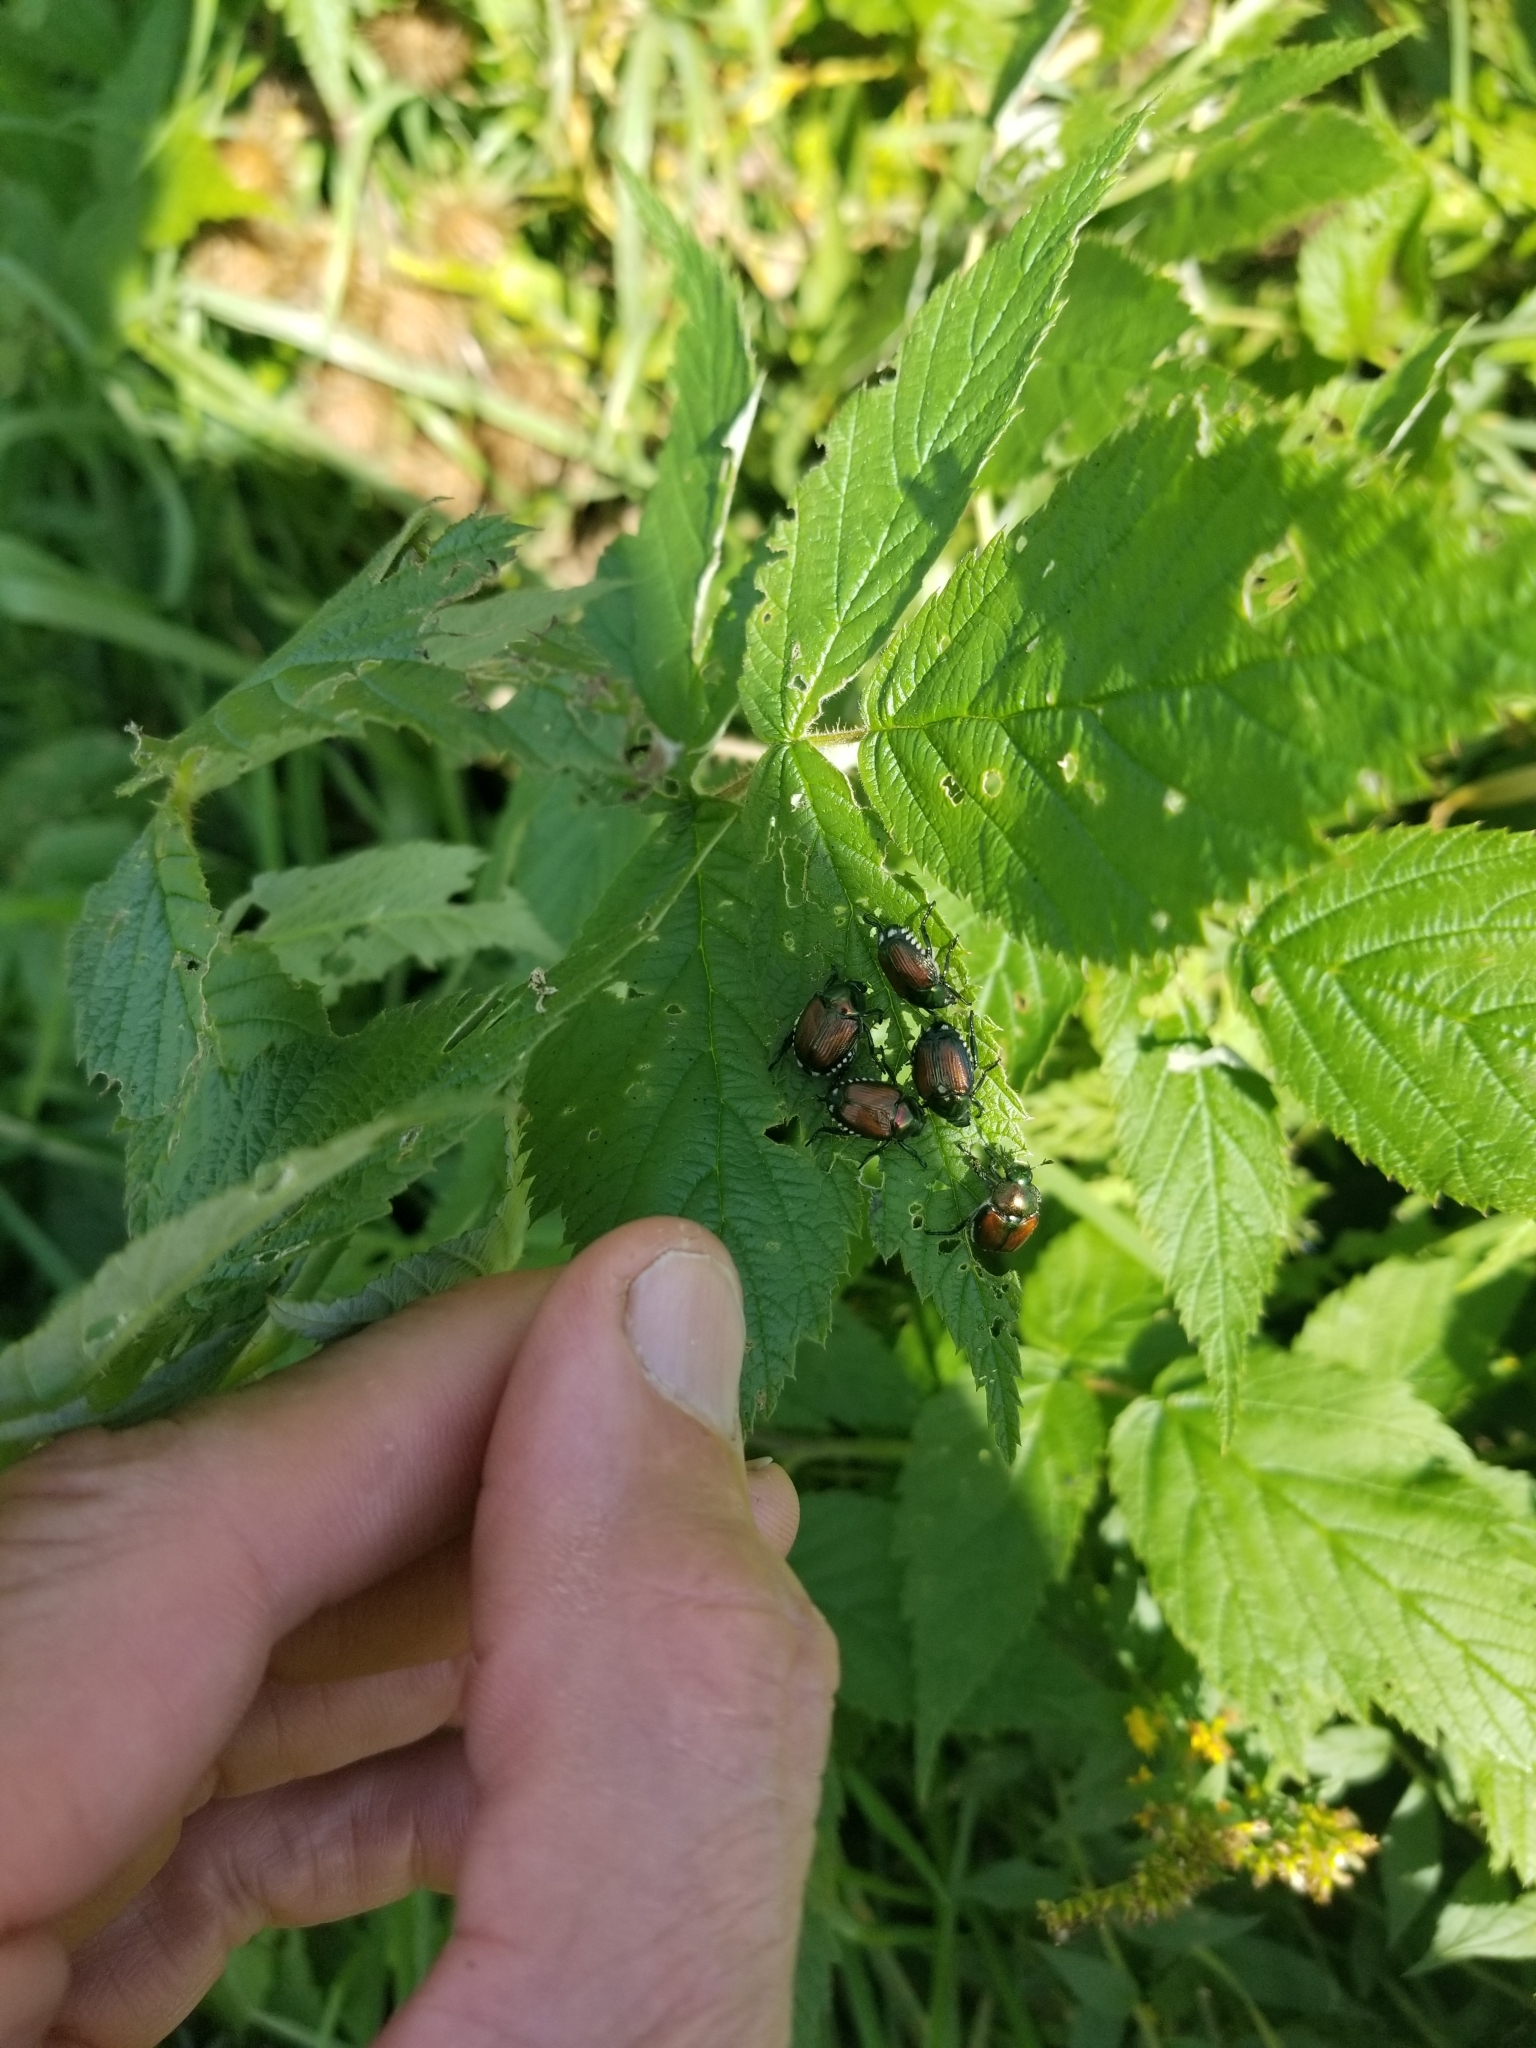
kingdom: Animalia
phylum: Arthropoda
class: Insecta
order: Coleoptera
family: Scarabaeidae
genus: Popillia
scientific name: Popillia japonica
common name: Japanese beetle
